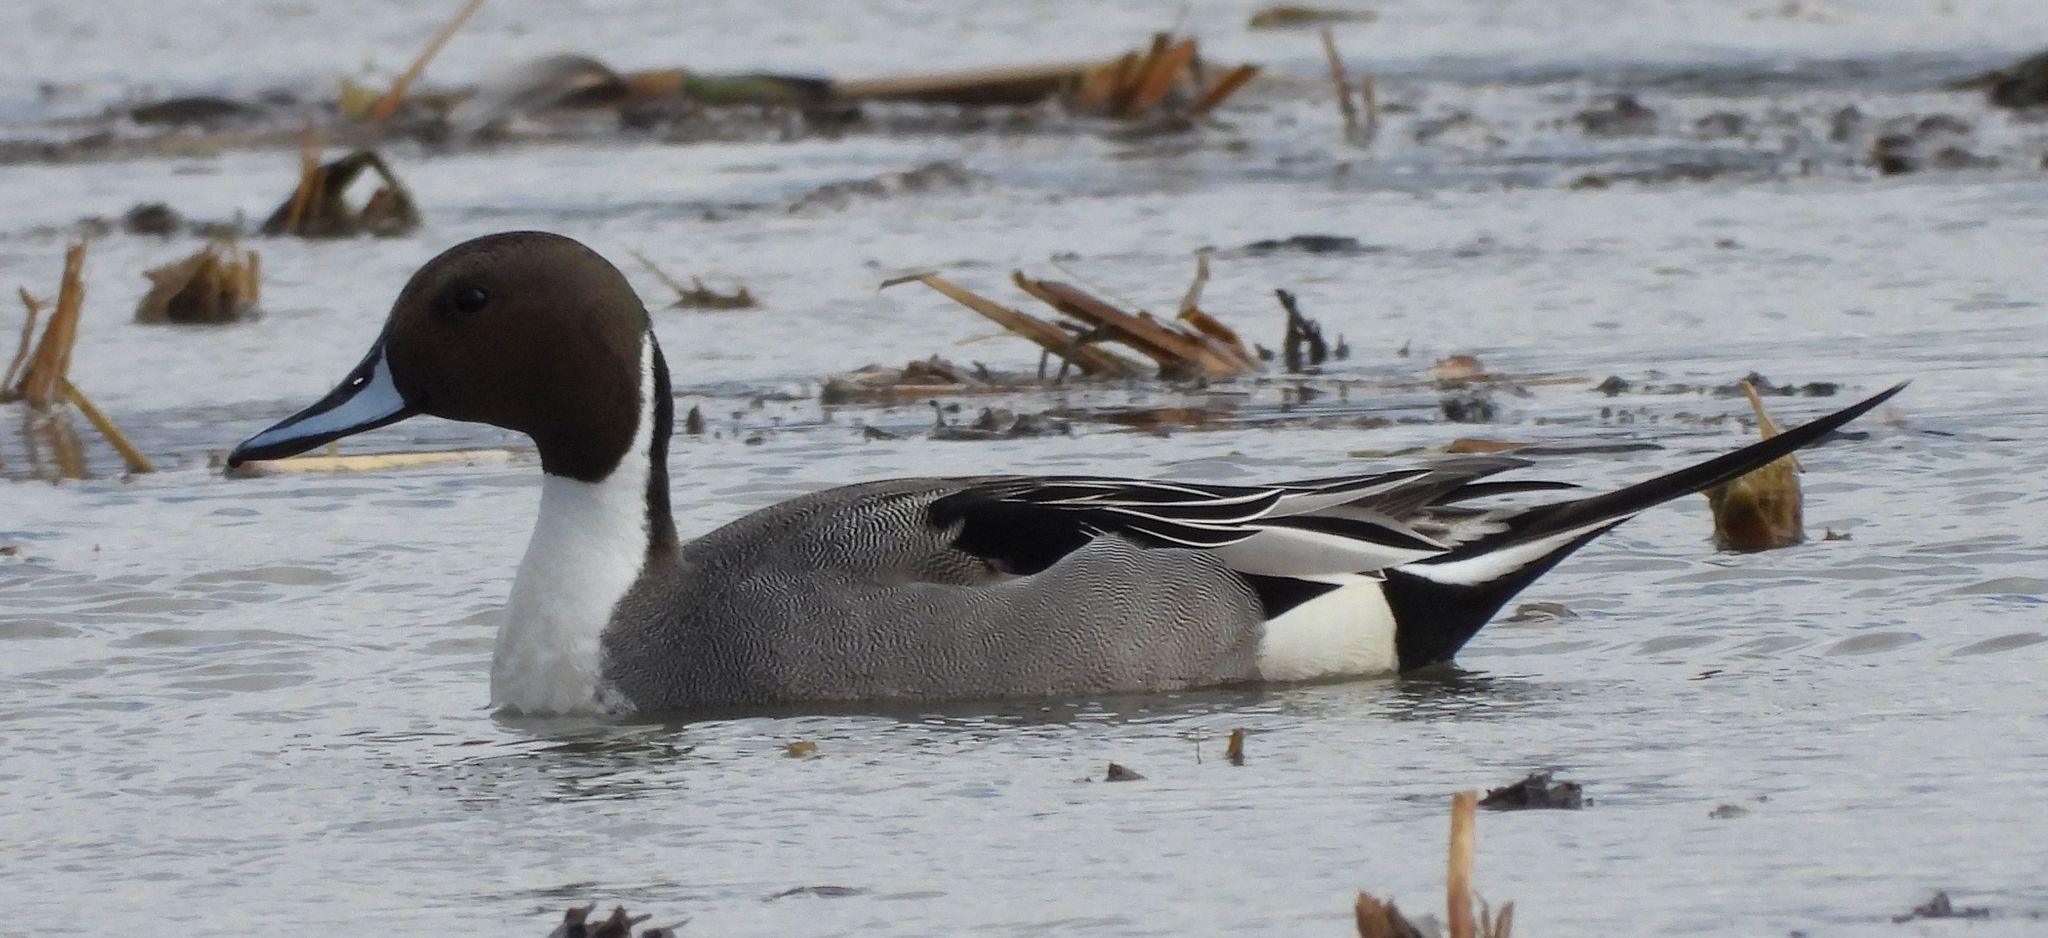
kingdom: Animalia
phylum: Chordata
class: Aves
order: Anseriformes
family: Anatidae
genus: Anas
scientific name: Anas acuta
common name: Northern pintail
